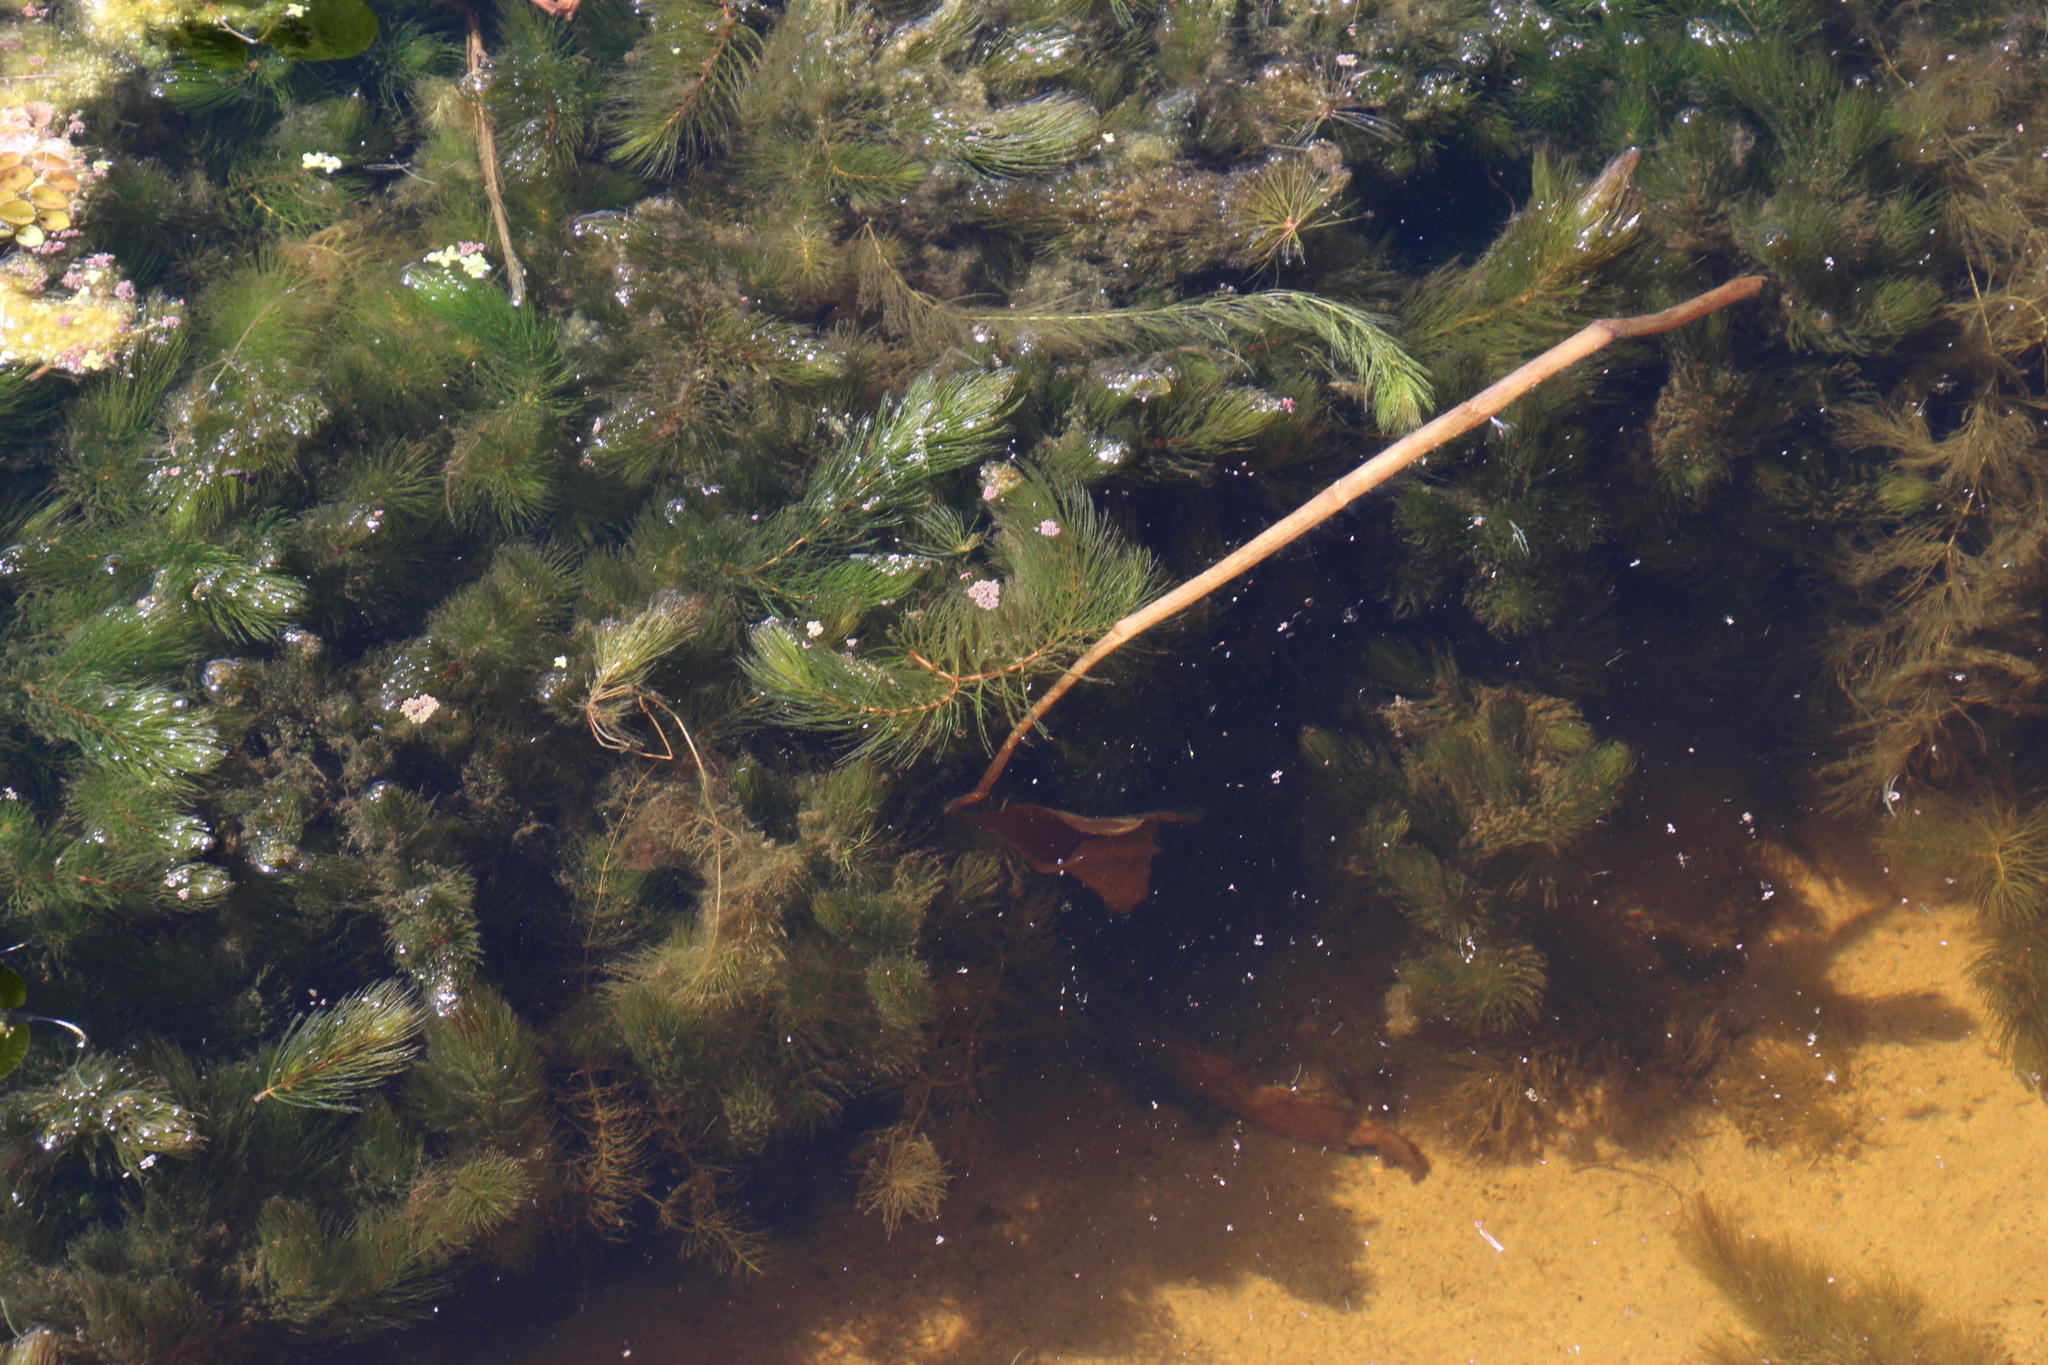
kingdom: Plantae
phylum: Tracheophyta
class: Magnoliopsida
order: Ceratophyllales
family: Ceratophyllaceae
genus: Ceratophyllum
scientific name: Ceratophyllum demersum
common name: Rigid hornwort
